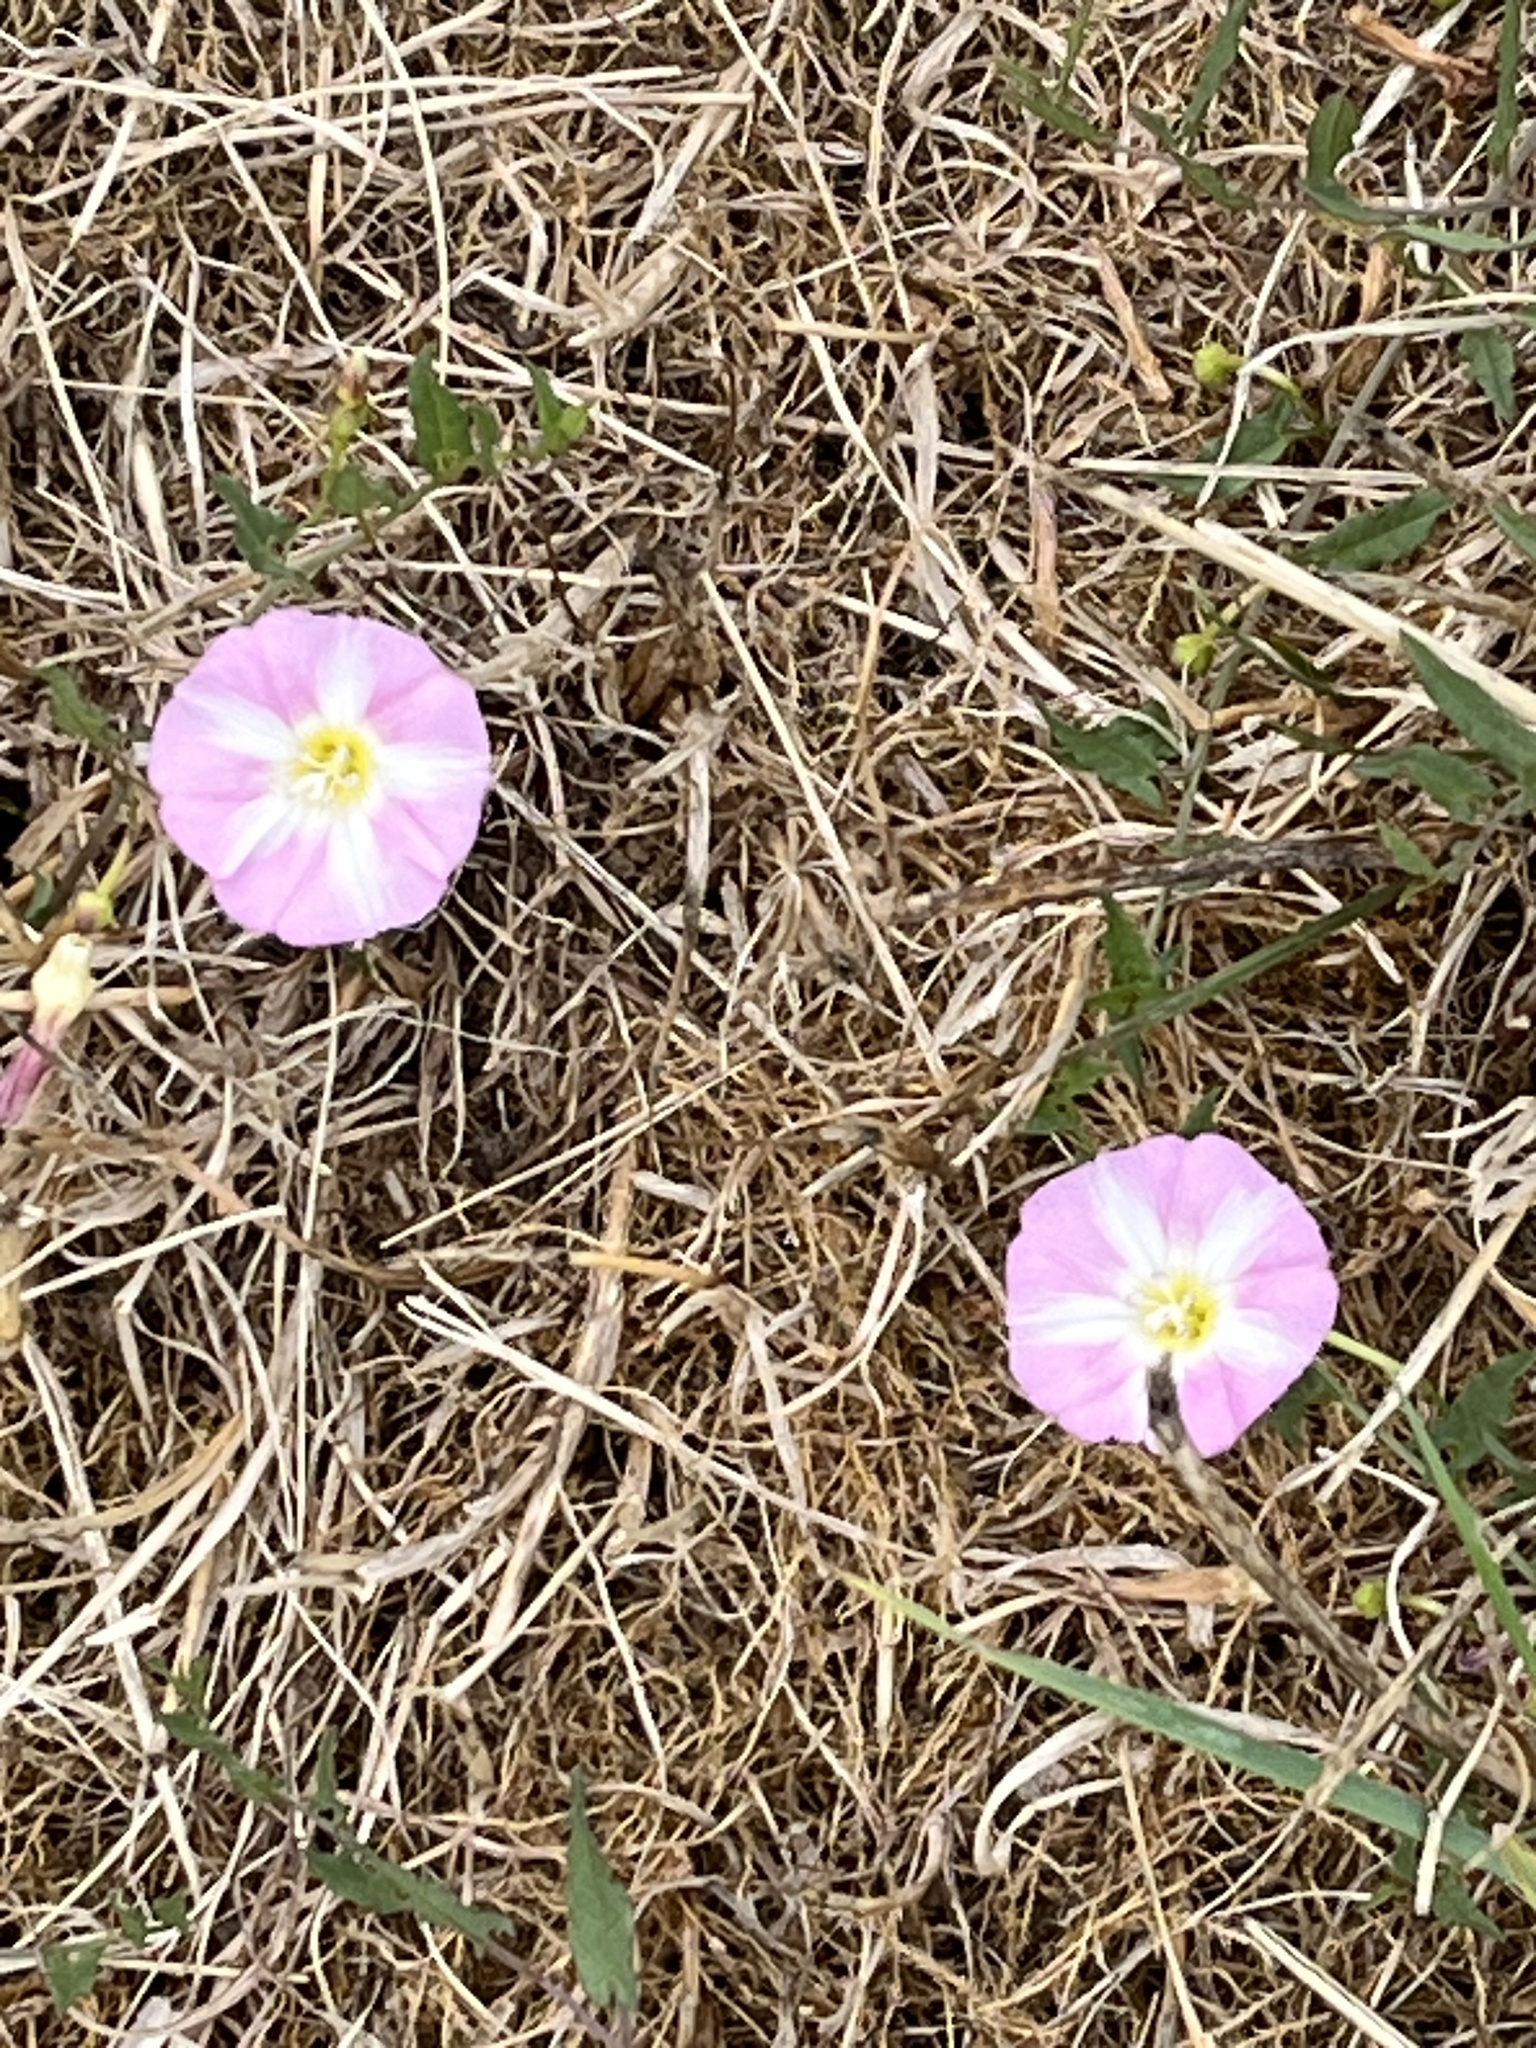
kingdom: Plantae
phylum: Tracheophyta
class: Magnoliopsida
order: Solanales
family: Convolvulaceae
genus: Convolvulus
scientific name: Convolvulus arvensis
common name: Field bindweed
